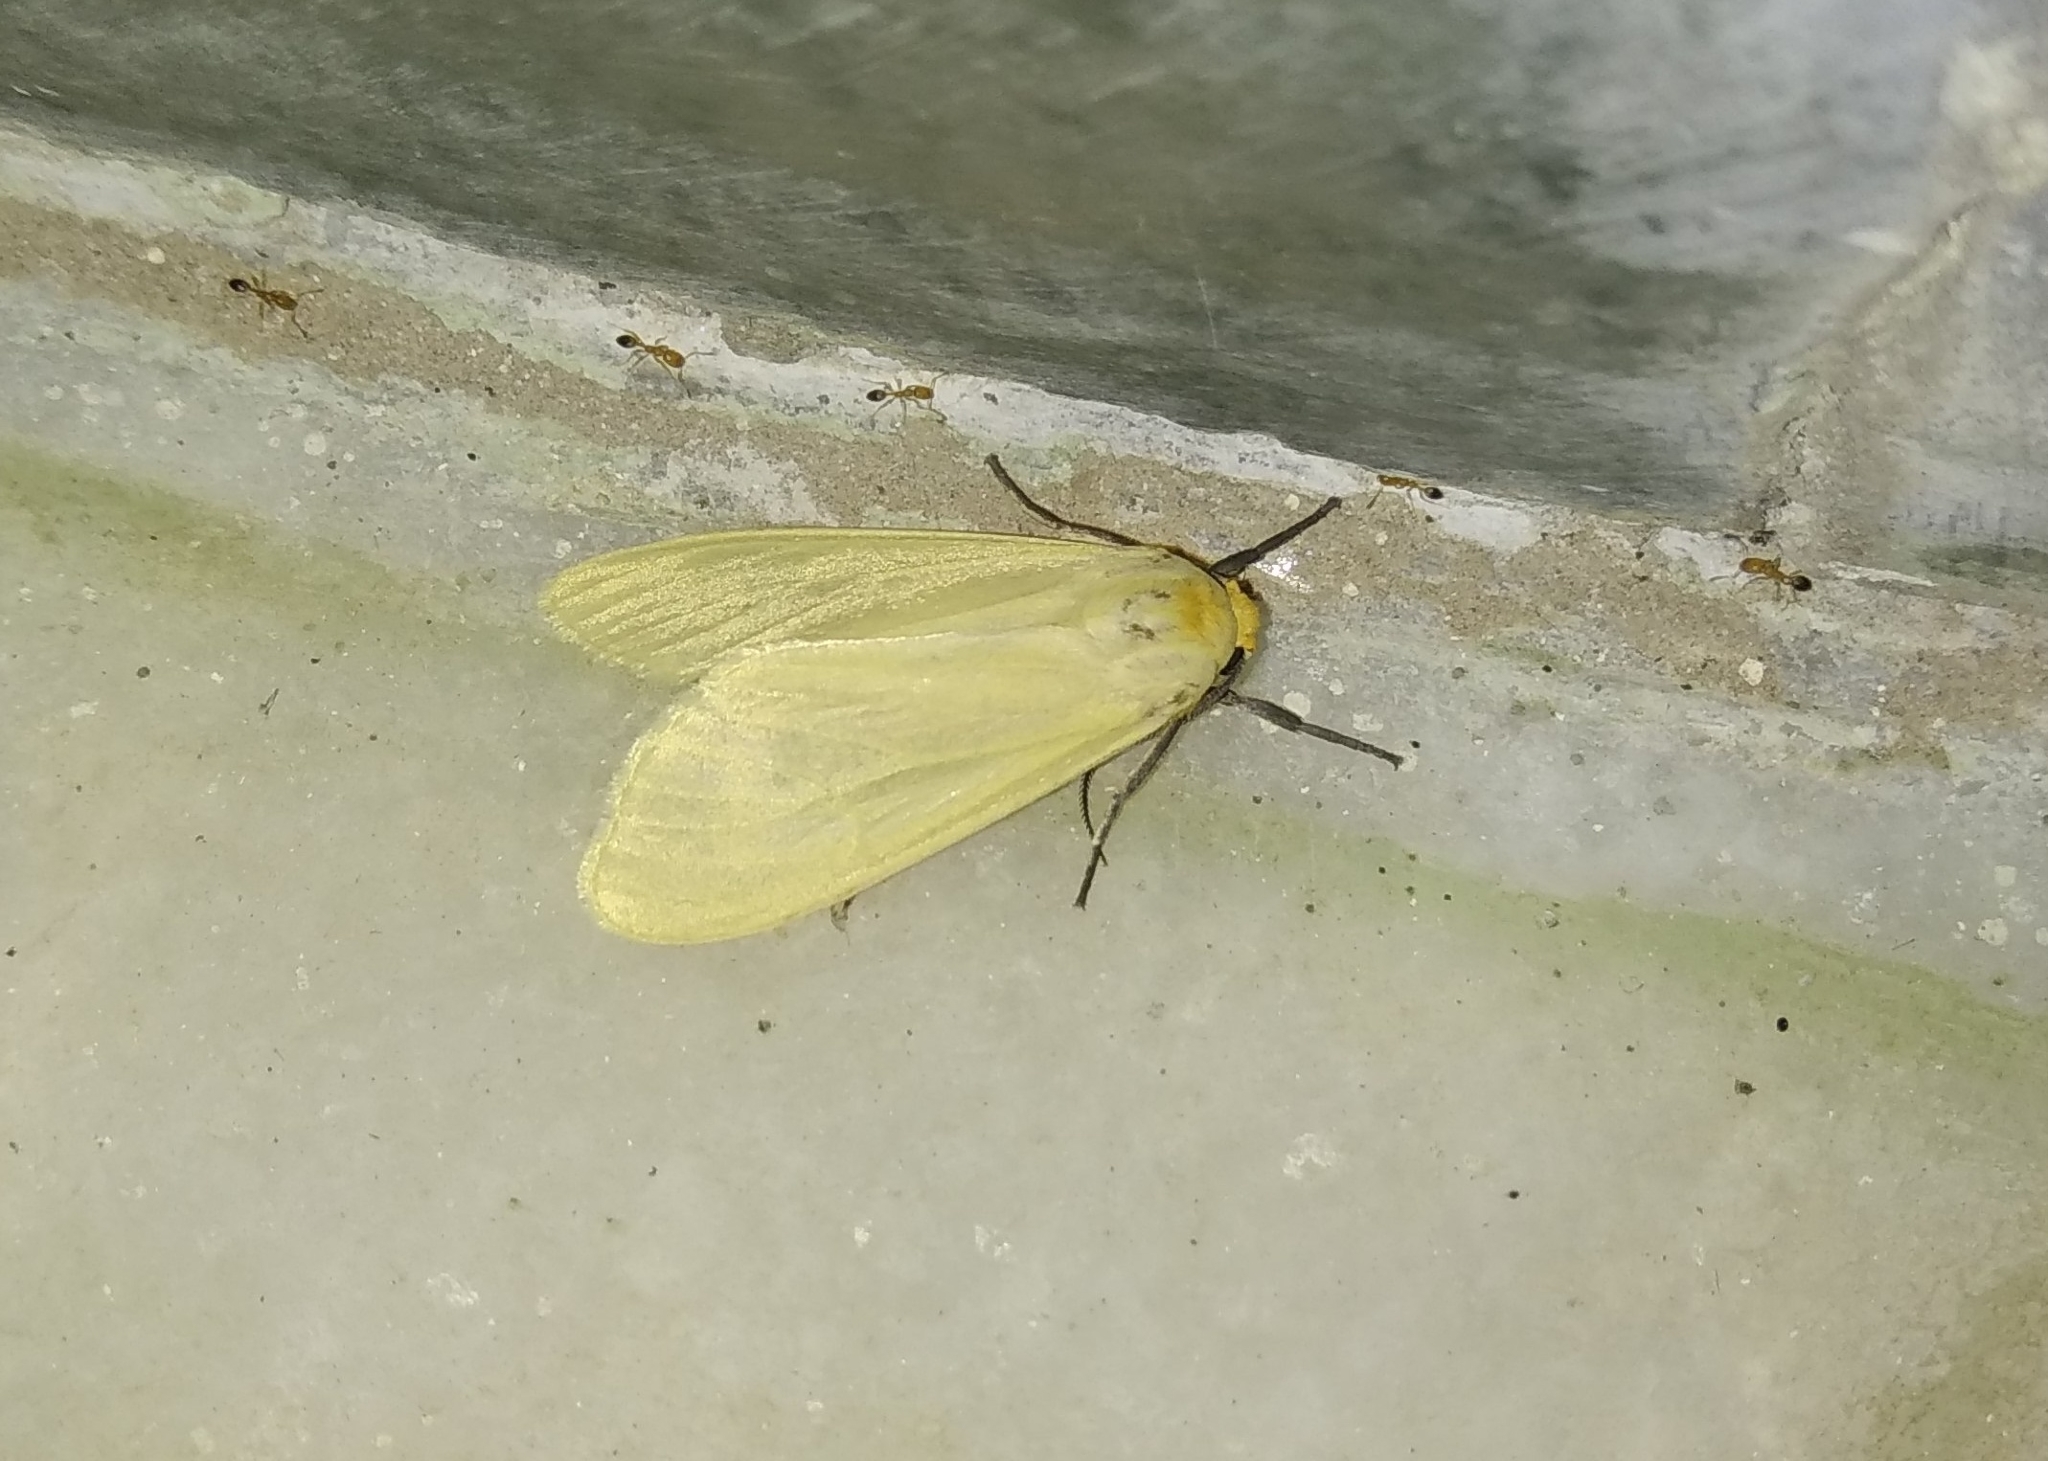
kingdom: Animalia
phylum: Arthropoda
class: Insecta
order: Lepidoptera
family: Erebidae
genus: Pareuchaetes
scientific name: Pareuchaetes pseudoinsulata
